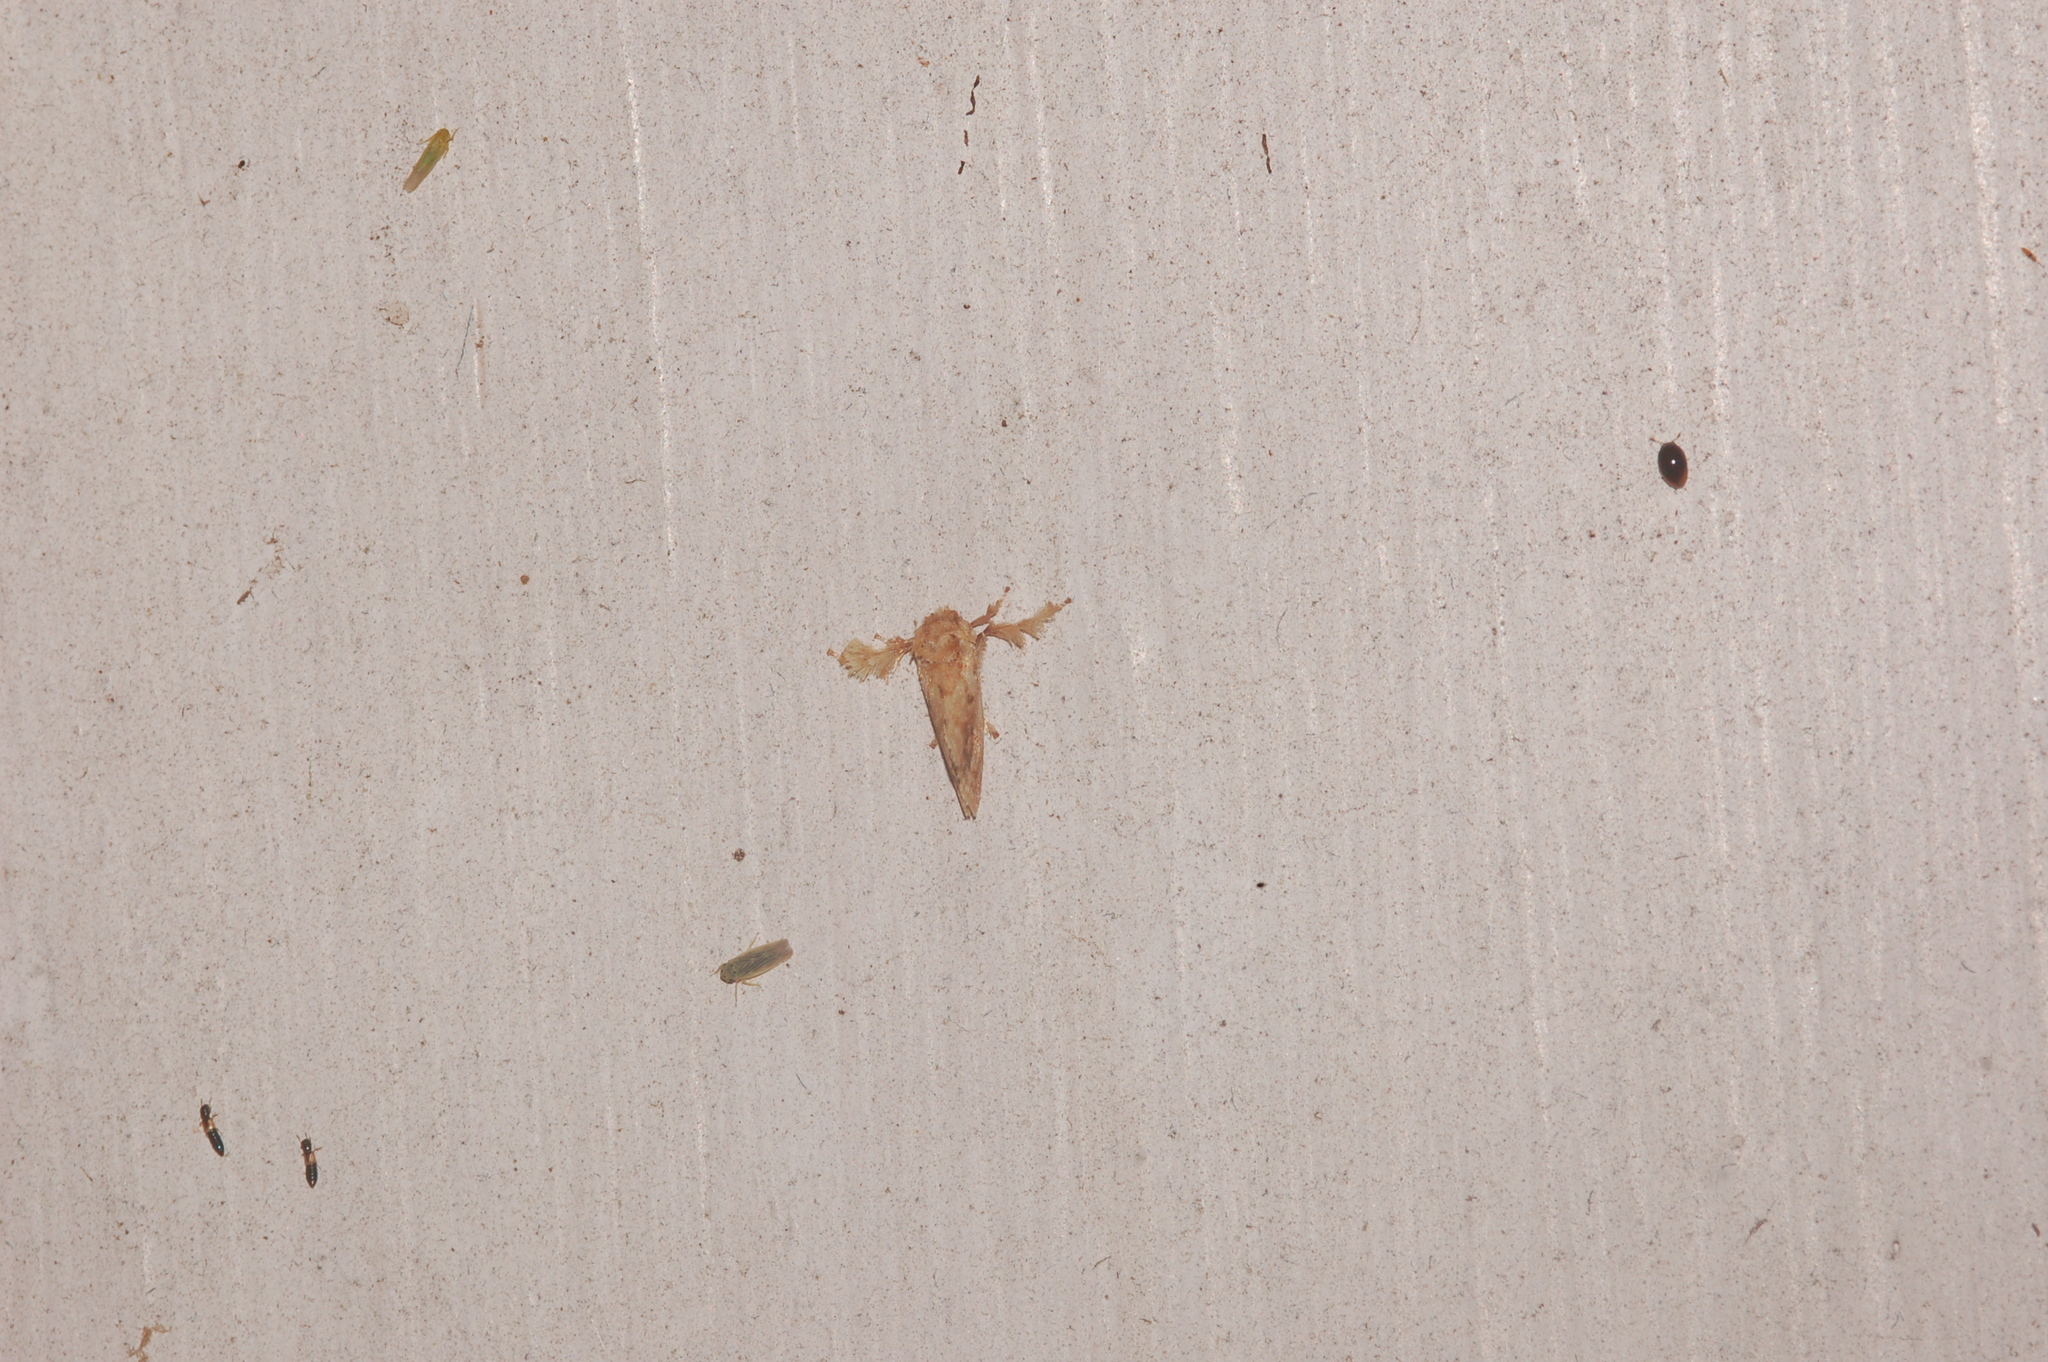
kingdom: Animalia
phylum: Arthropoda
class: Insecta
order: Lepidoptera
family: Limacodidae
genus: Isochaetes
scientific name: Isochaetes beutenmuelleri
